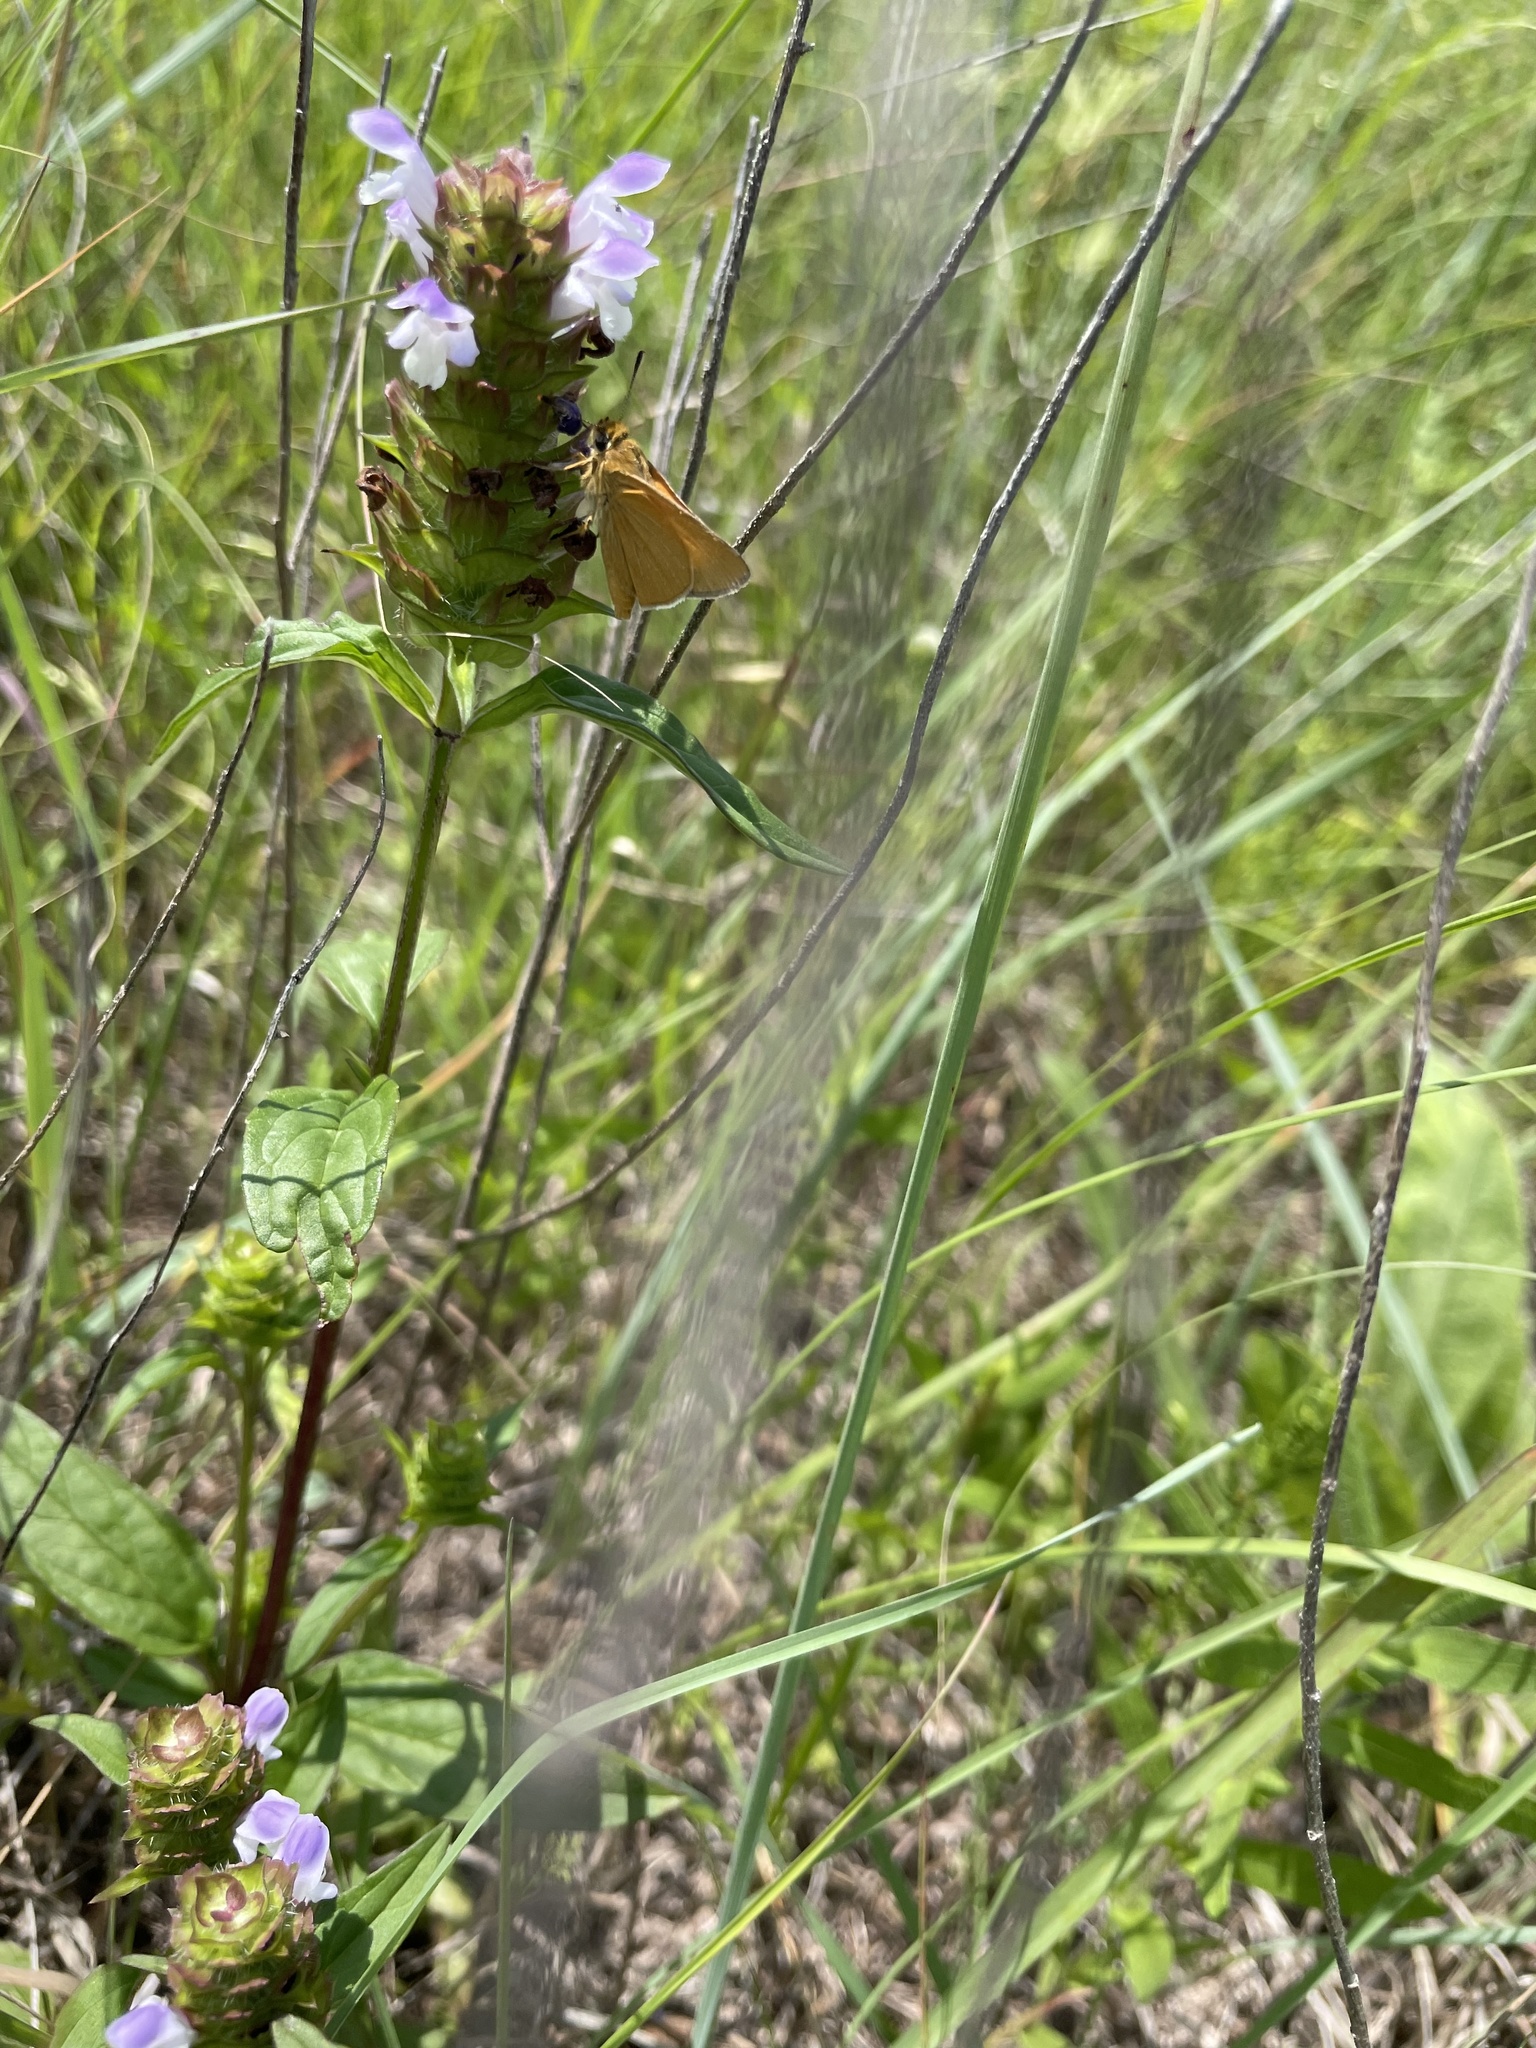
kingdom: Animalia
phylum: Arthropoda
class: Insecta
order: Lepidoptera
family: Hesperiidae
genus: Atrytone
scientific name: Atrytone arogos
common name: Arogos skipper
